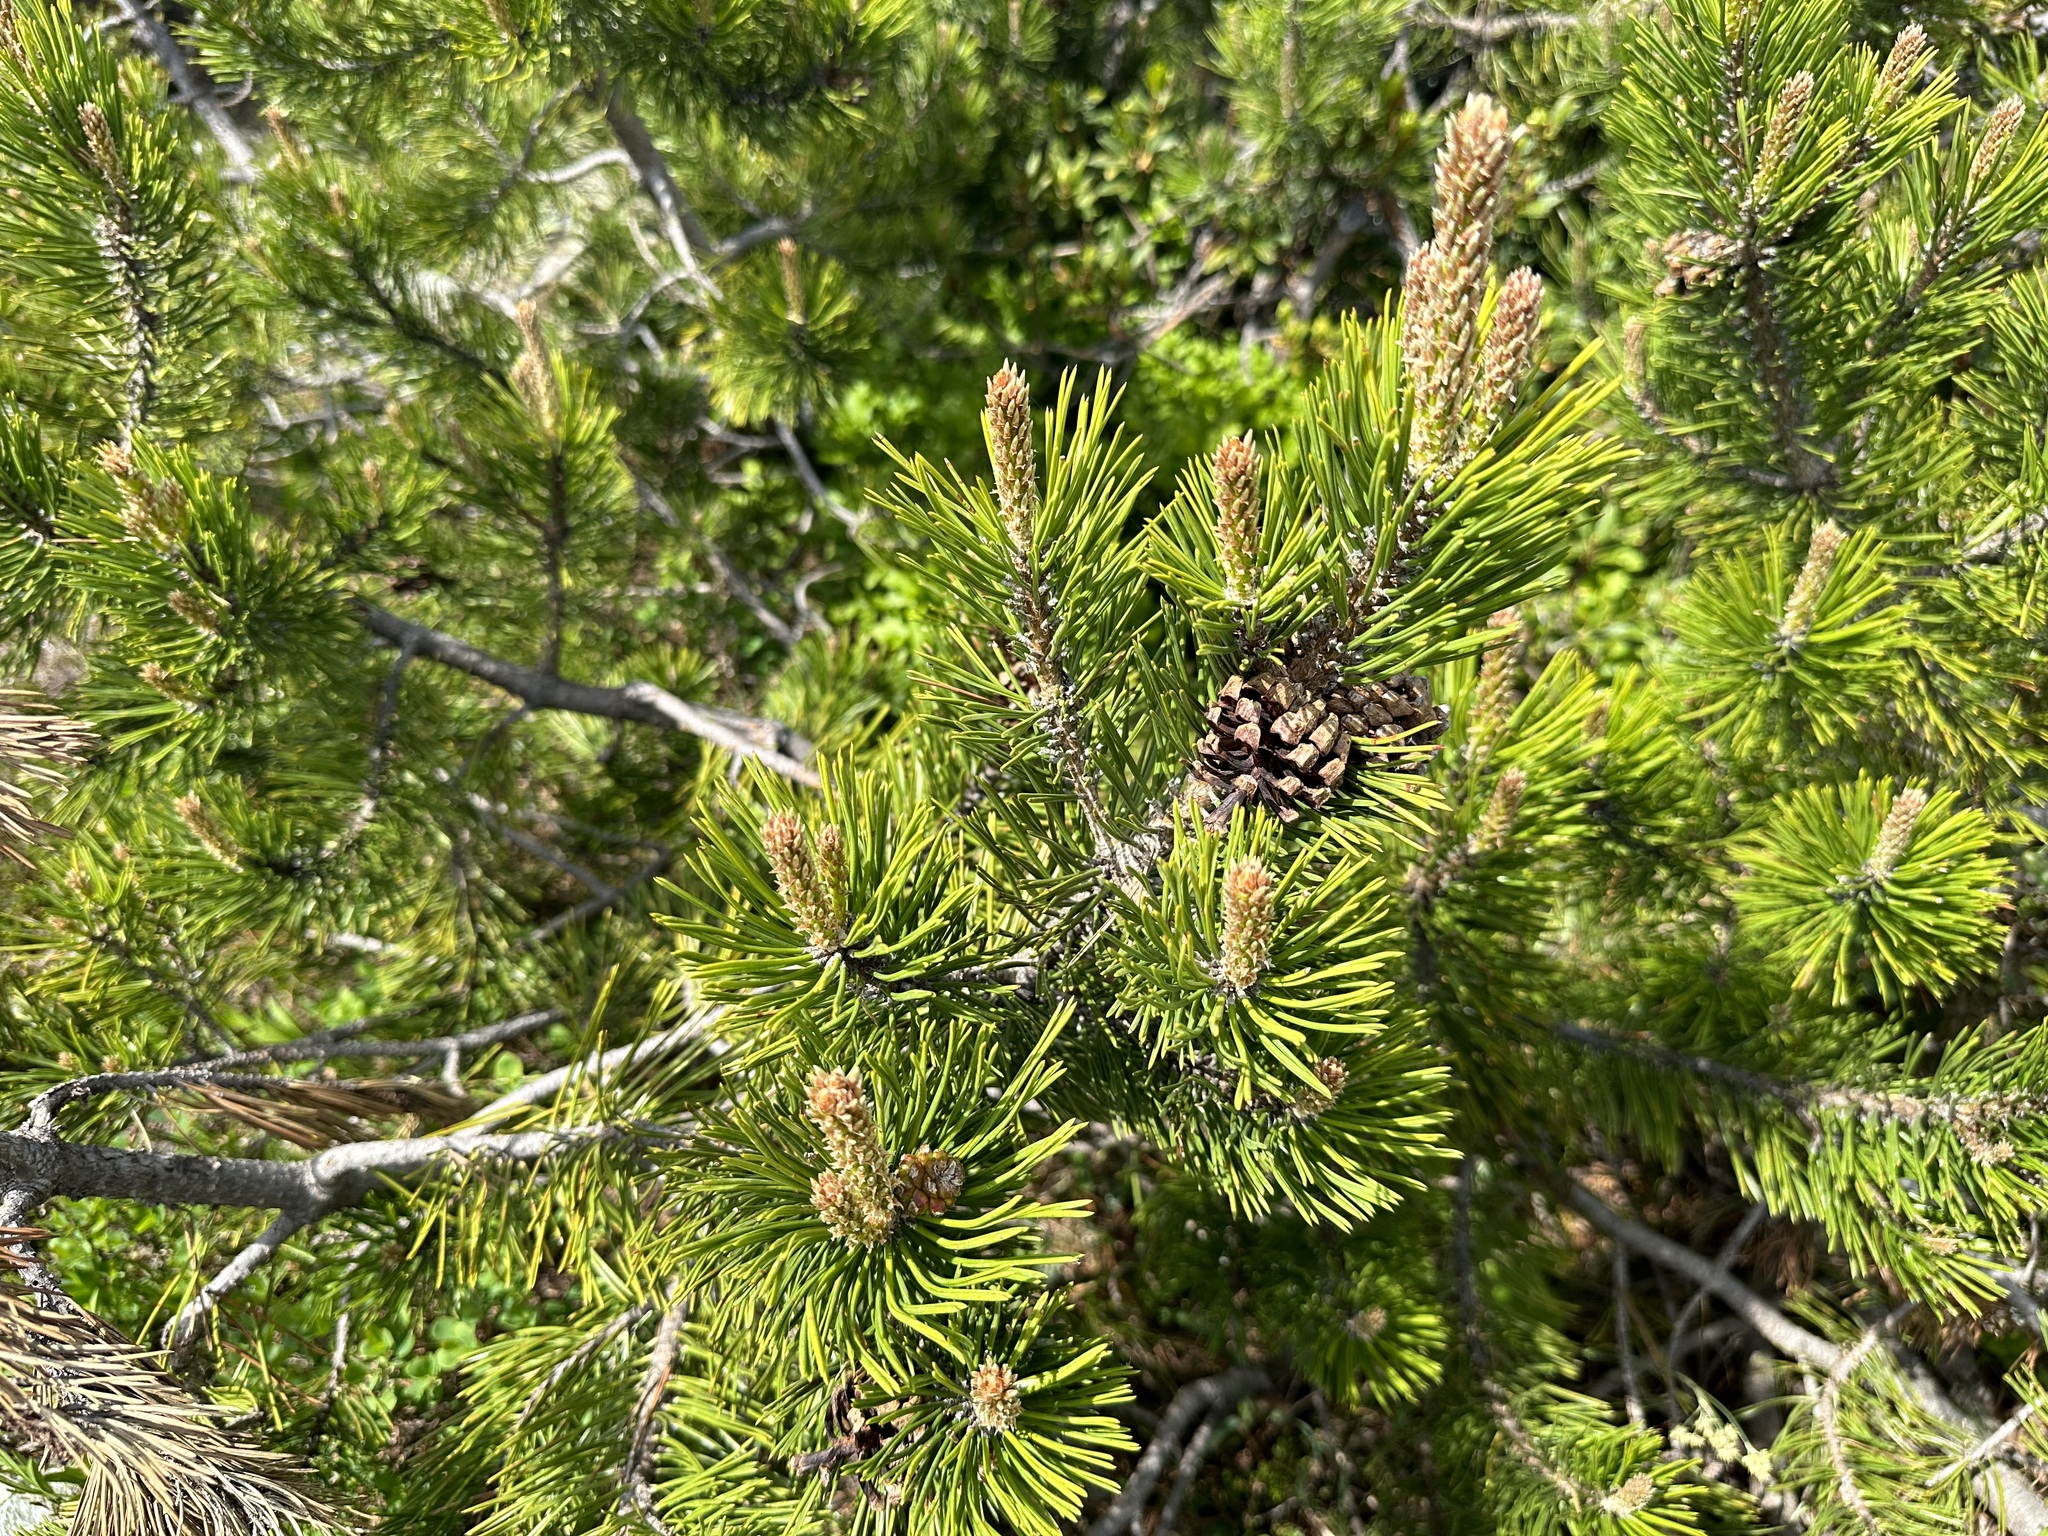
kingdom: Plantae
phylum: Tracheophyta
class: Pinopsida
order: Pinales
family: Pinaceae
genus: Pinus
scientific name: Pinus mugo
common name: Mugo pine
